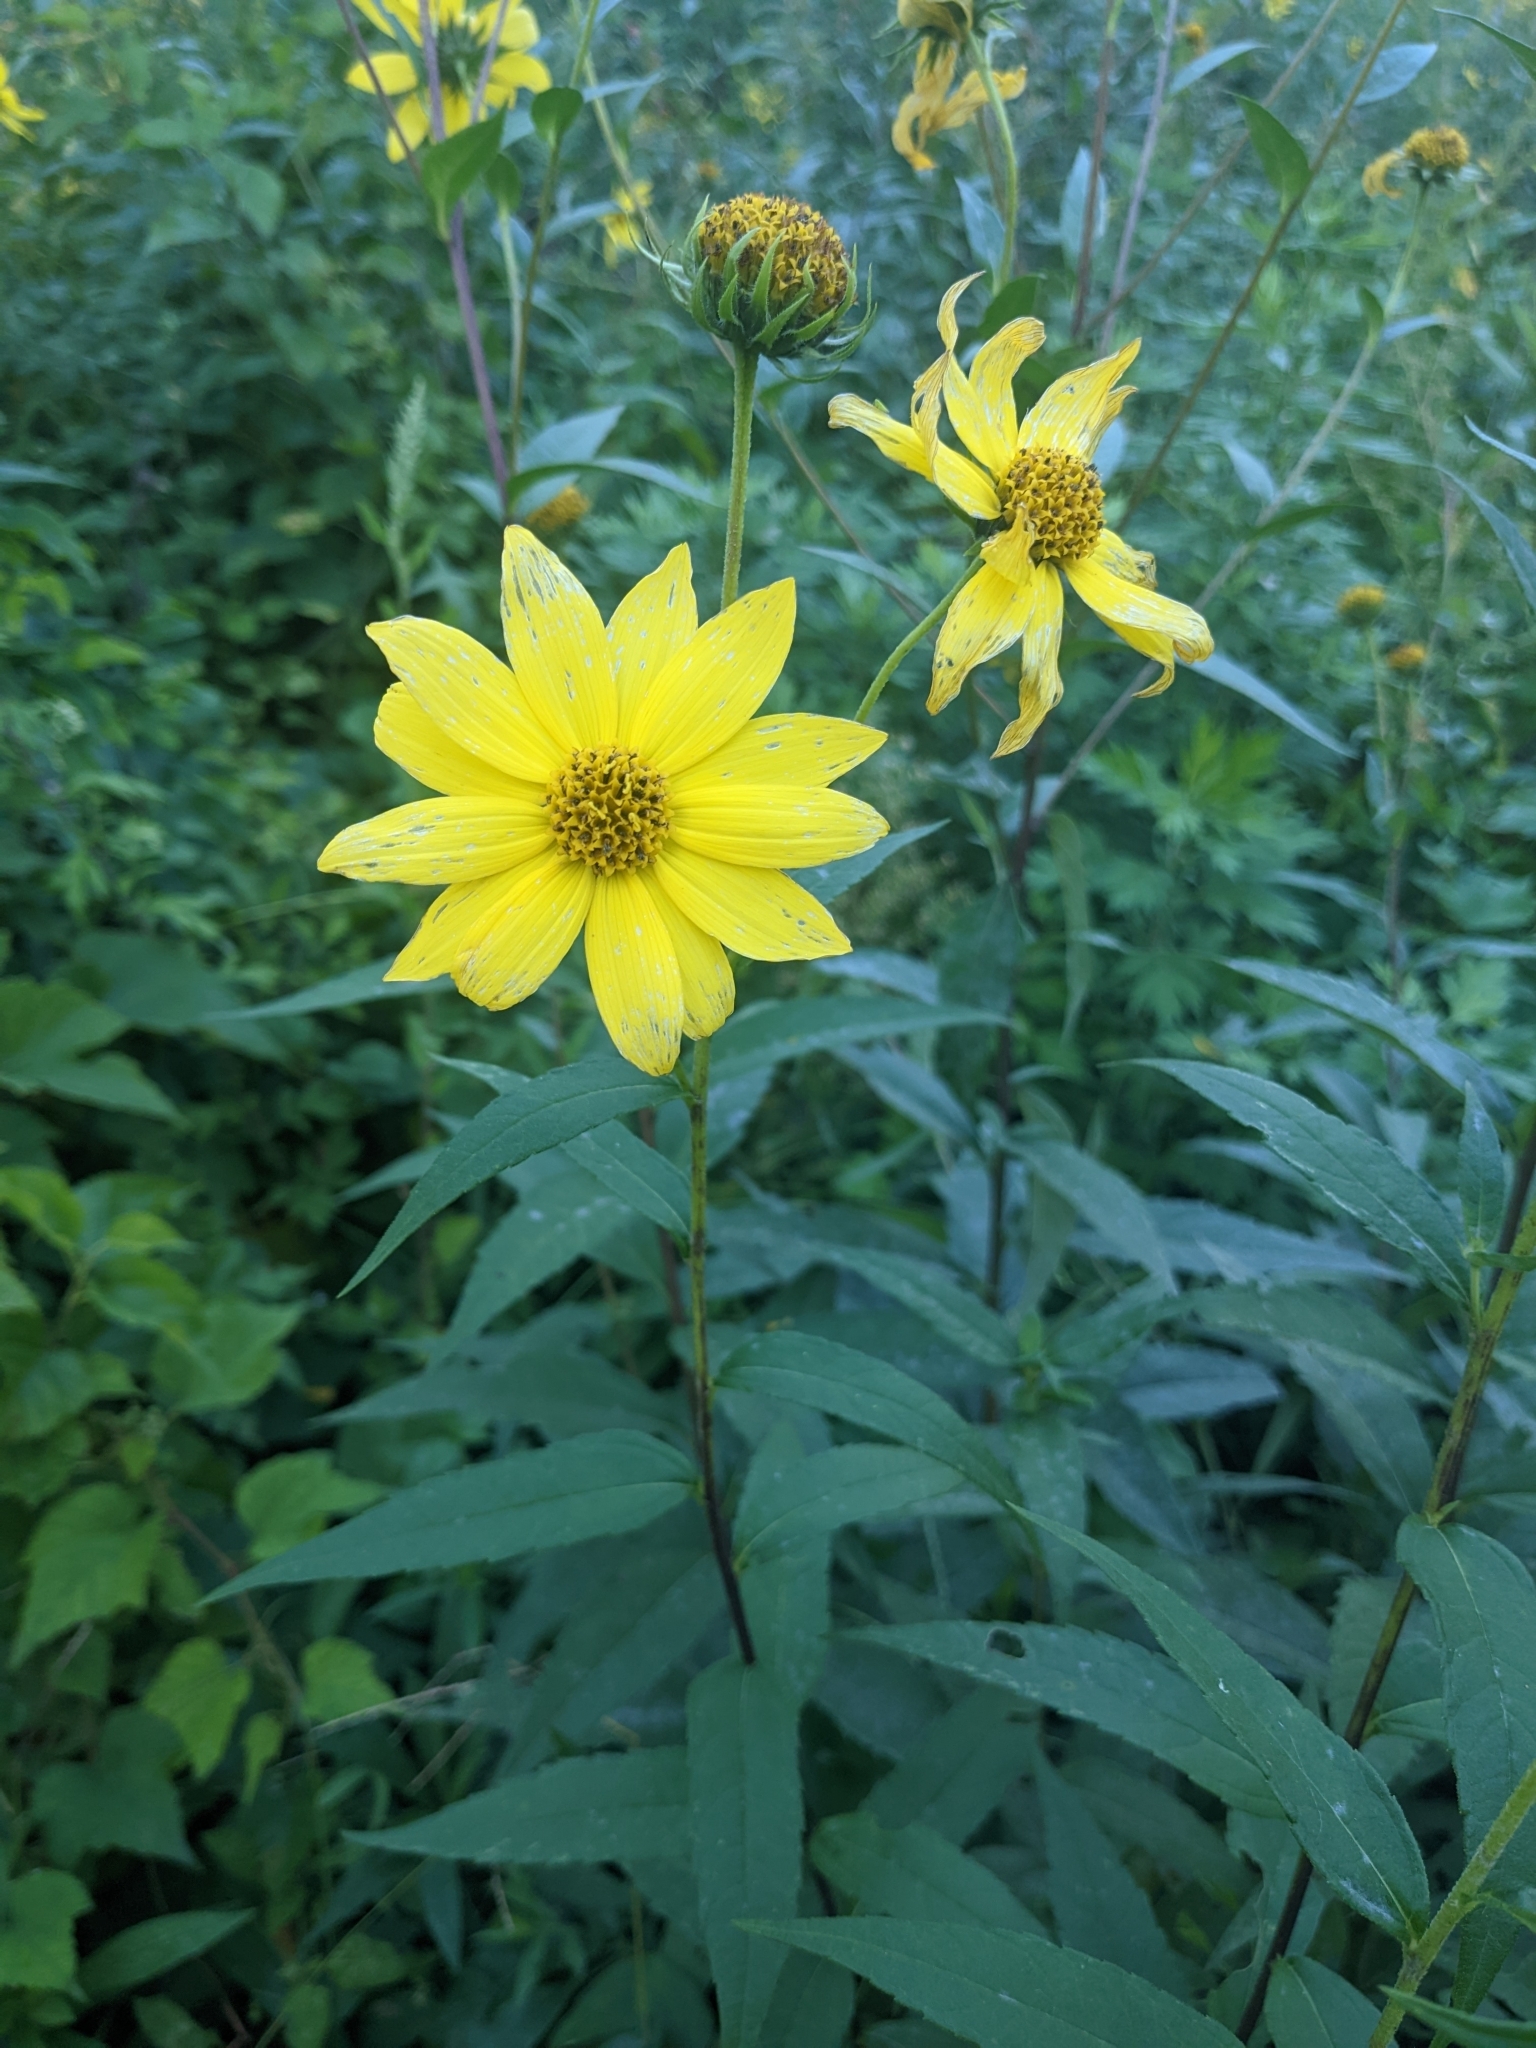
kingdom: Plantae
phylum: Tracheophyta
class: Magnoliopsida
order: Asterales
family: Asteraceae
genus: Helianthus
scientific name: Helianthus giganteus
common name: Giant sunflower
